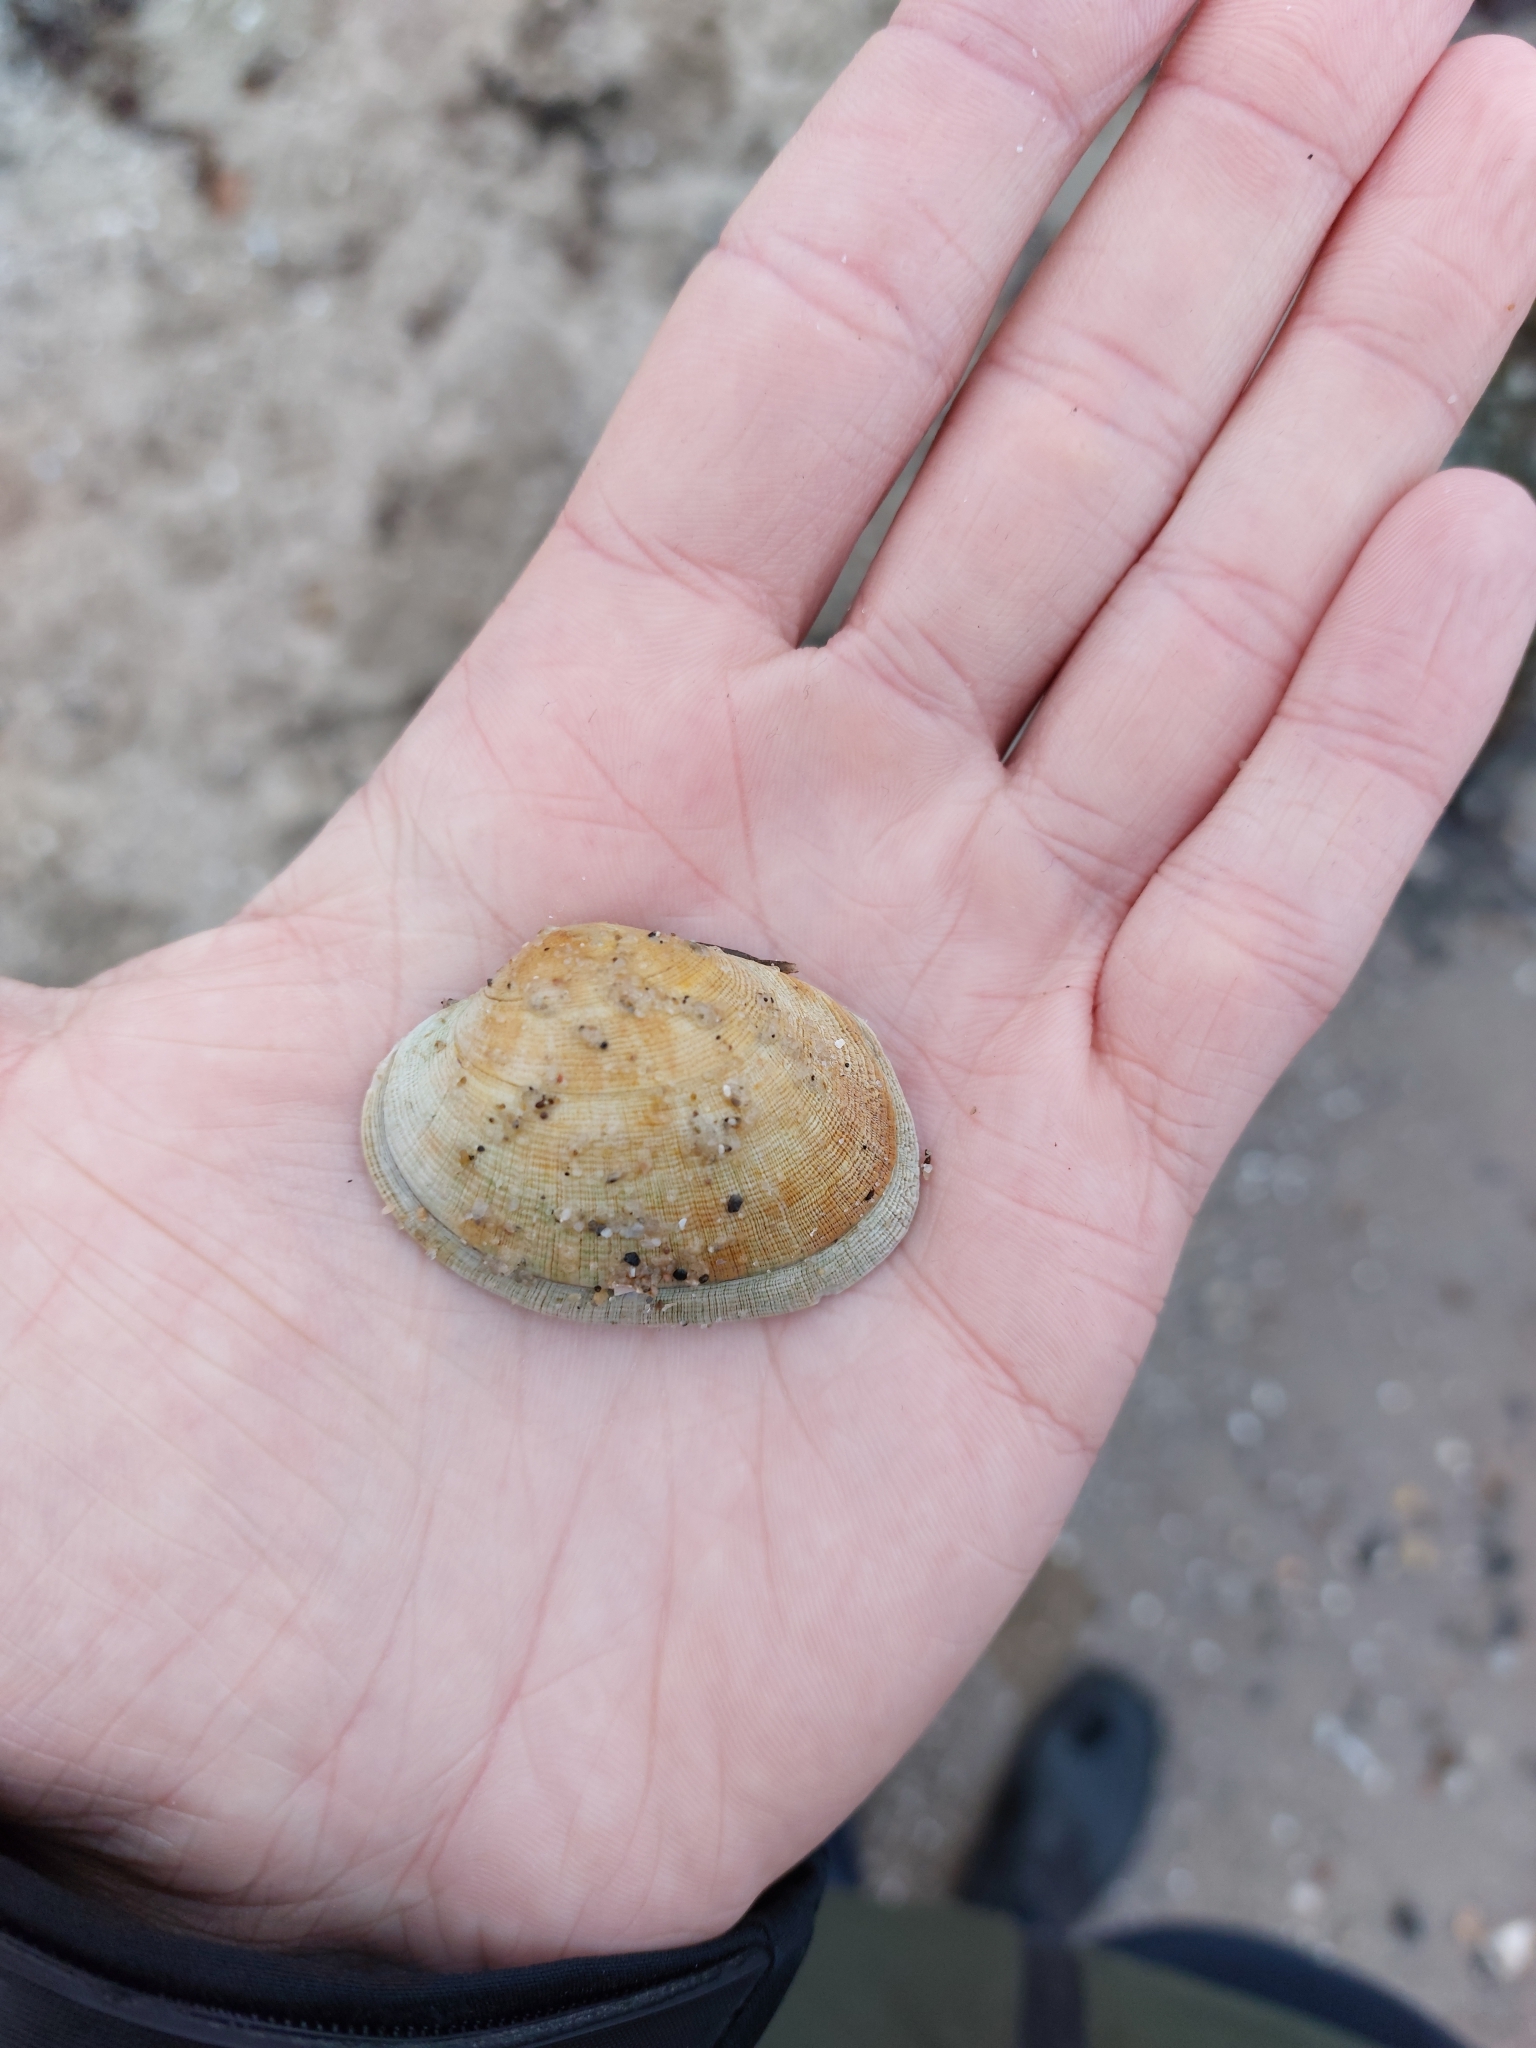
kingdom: Animalia
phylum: Mollusca
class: Bivalvia
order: Venerida
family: Veneridae
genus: Venerupis
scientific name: Venerupis corrugata
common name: Pullet carpet shell
